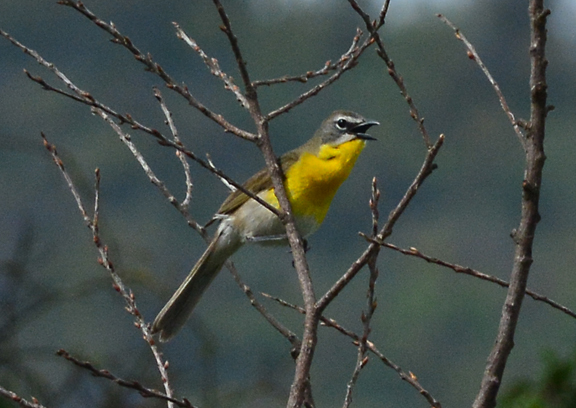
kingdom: Animalia
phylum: Chordata
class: Aves
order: Passeriformes
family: Parulidae
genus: Icteria
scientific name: Icteria virens
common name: Yellow-breasted chat
